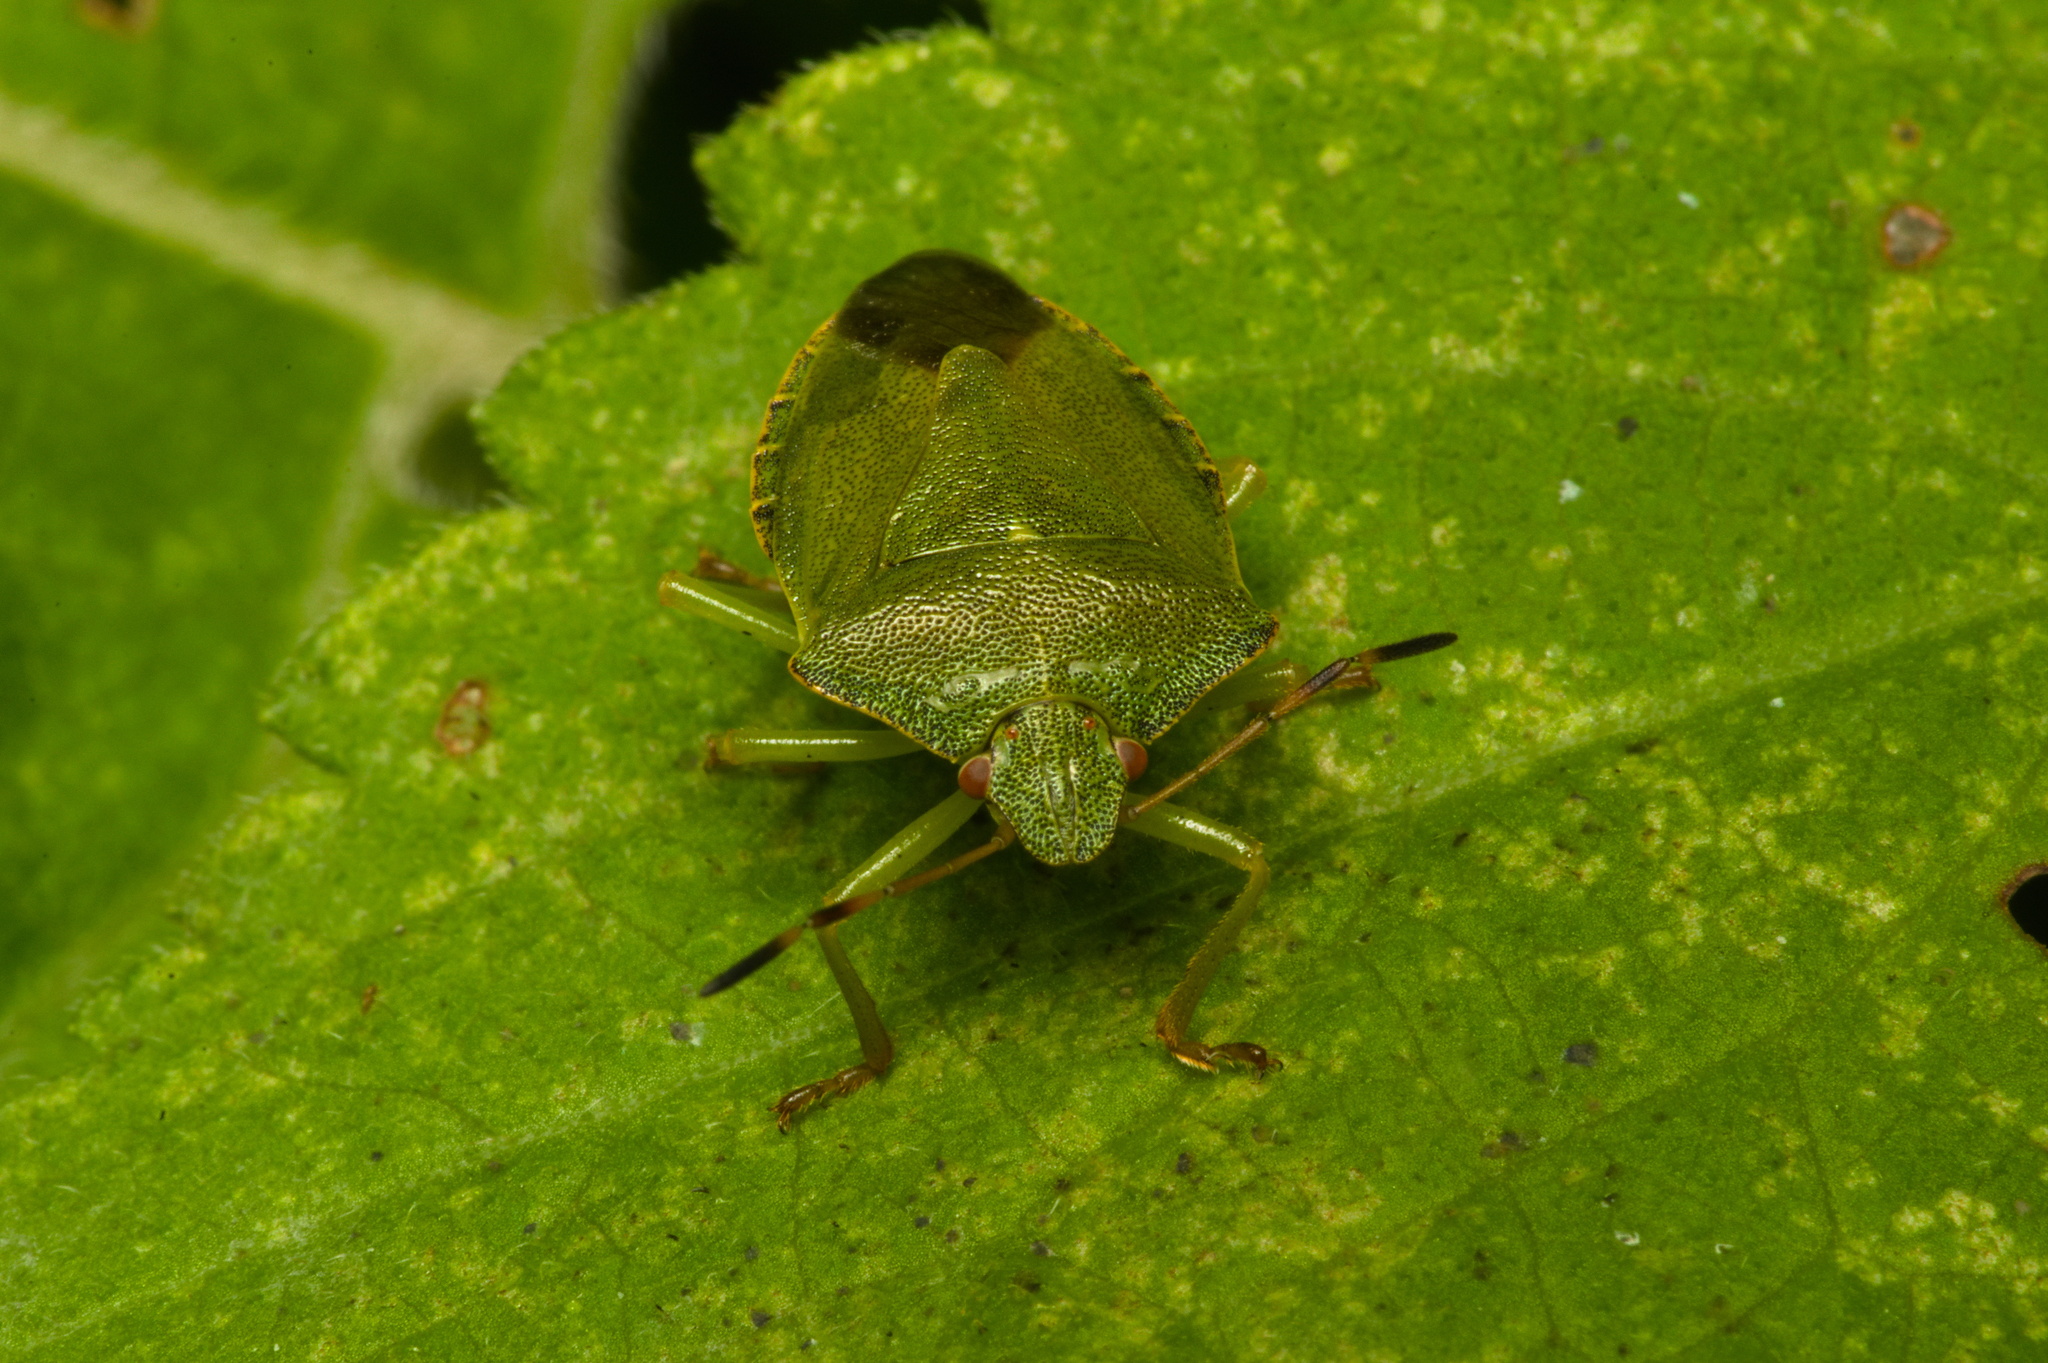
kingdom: Animalia
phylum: Arthropoda
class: Insecta
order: Hemiptera
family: Pentatomidae
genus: Palomena
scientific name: Palomena prasina
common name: Green shieldbug
